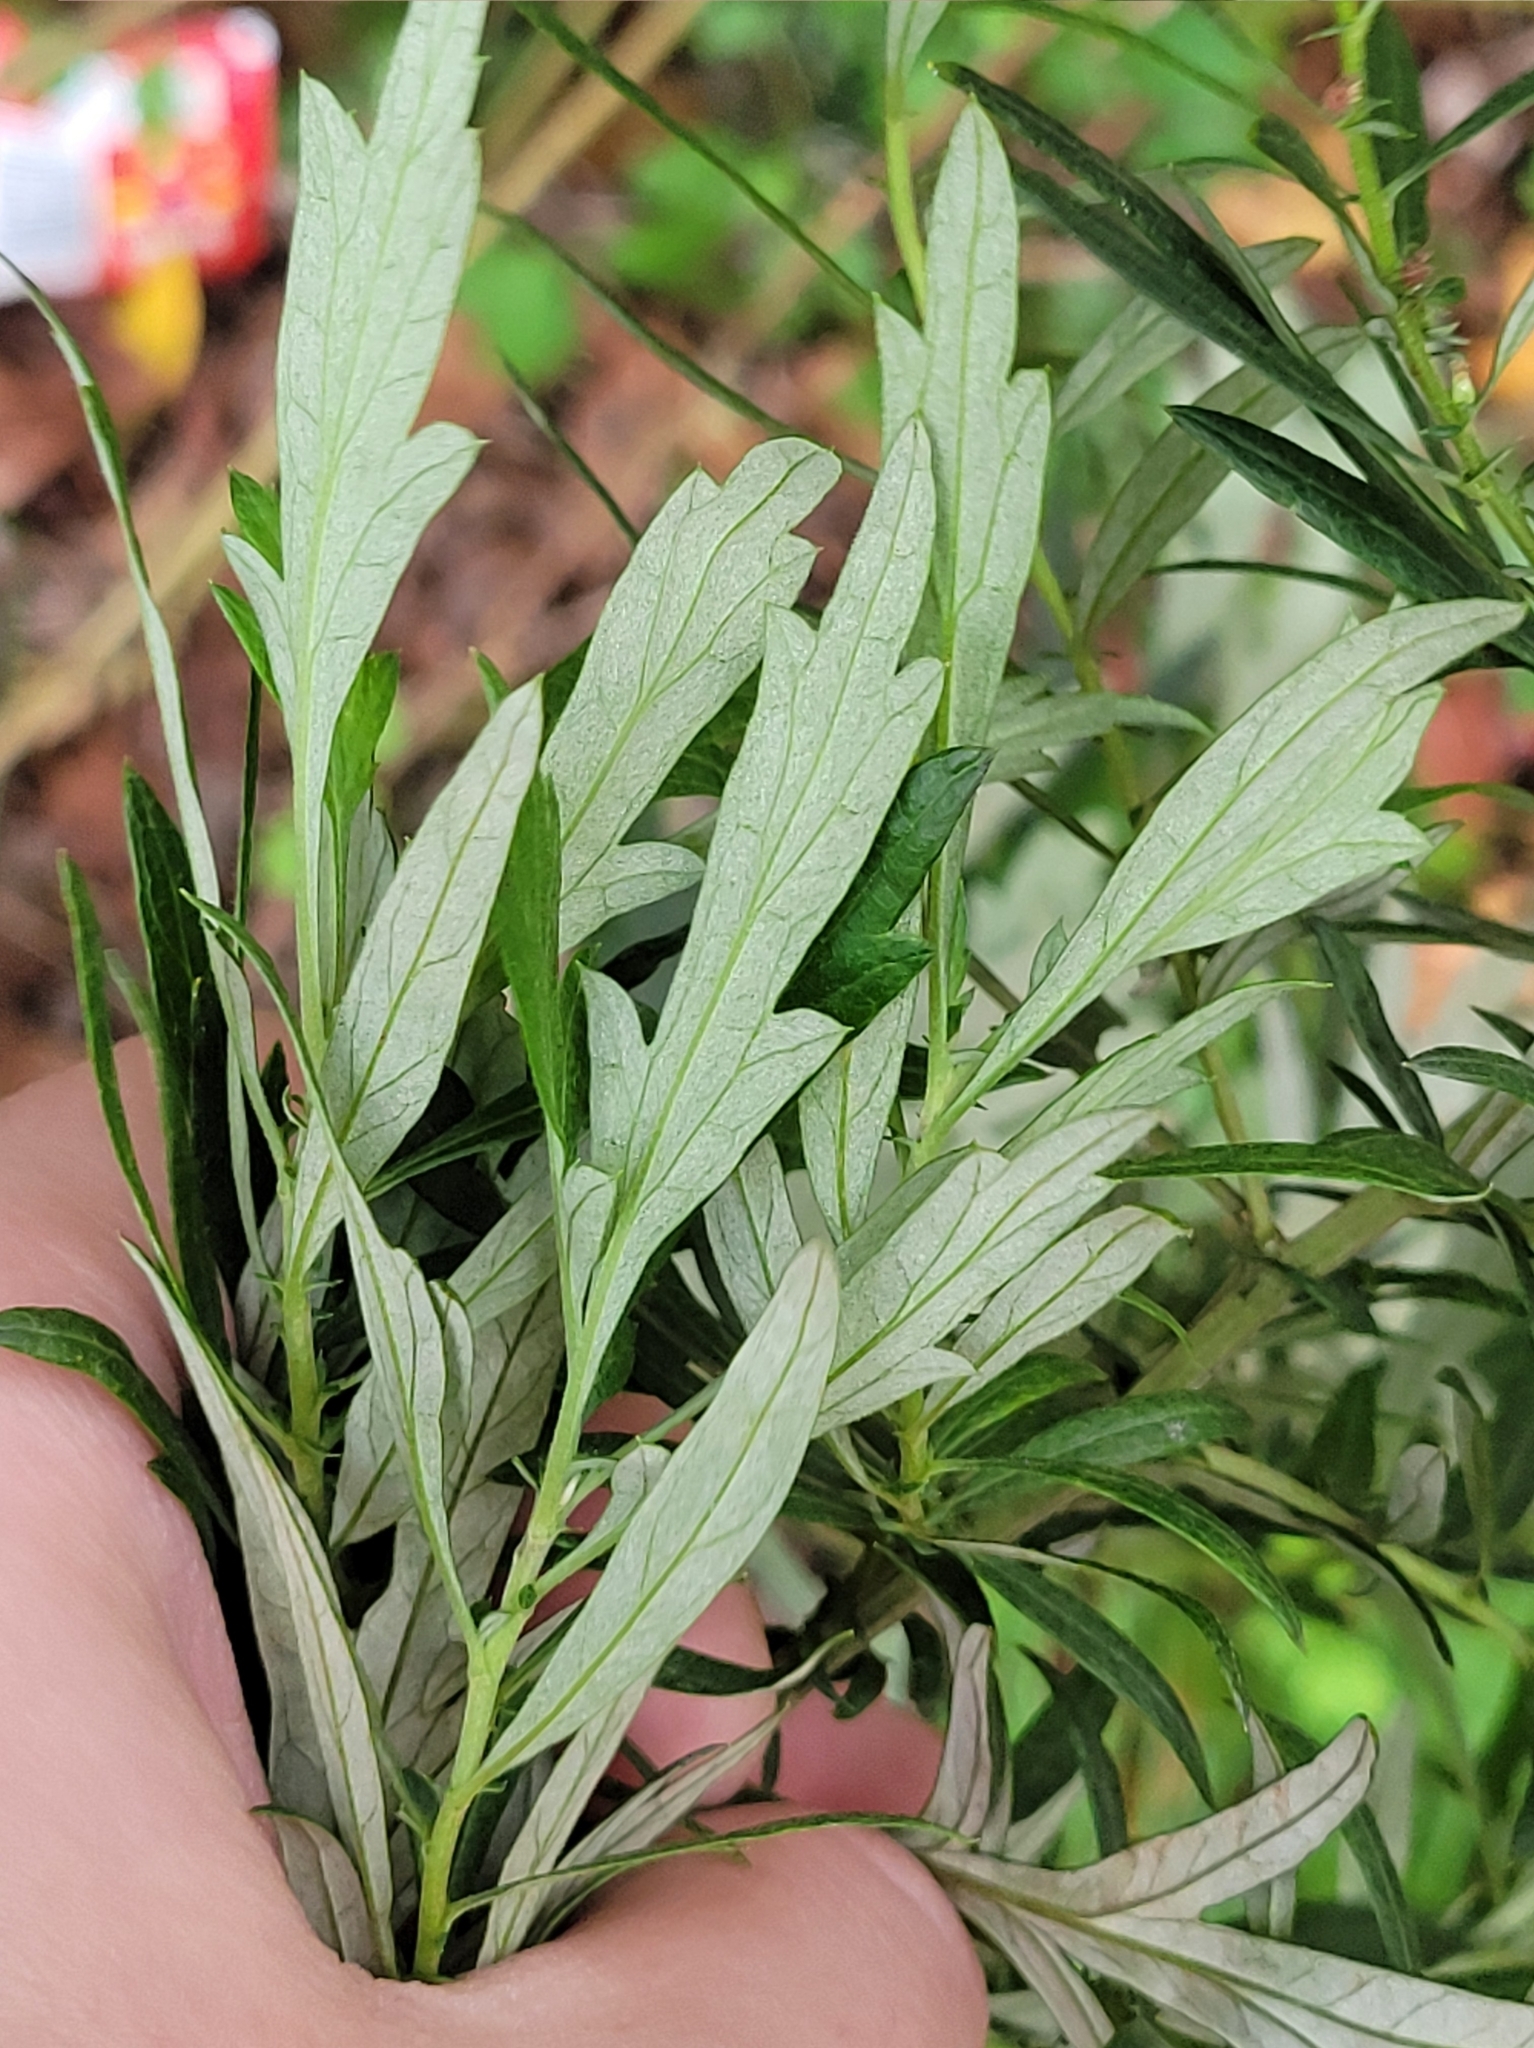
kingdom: Plantae
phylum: Tracheophyta
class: Magnoliopsida
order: Asterales
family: Asteraceae
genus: Artemisia
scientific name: Artemisia vulgaris
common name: Mugwort
